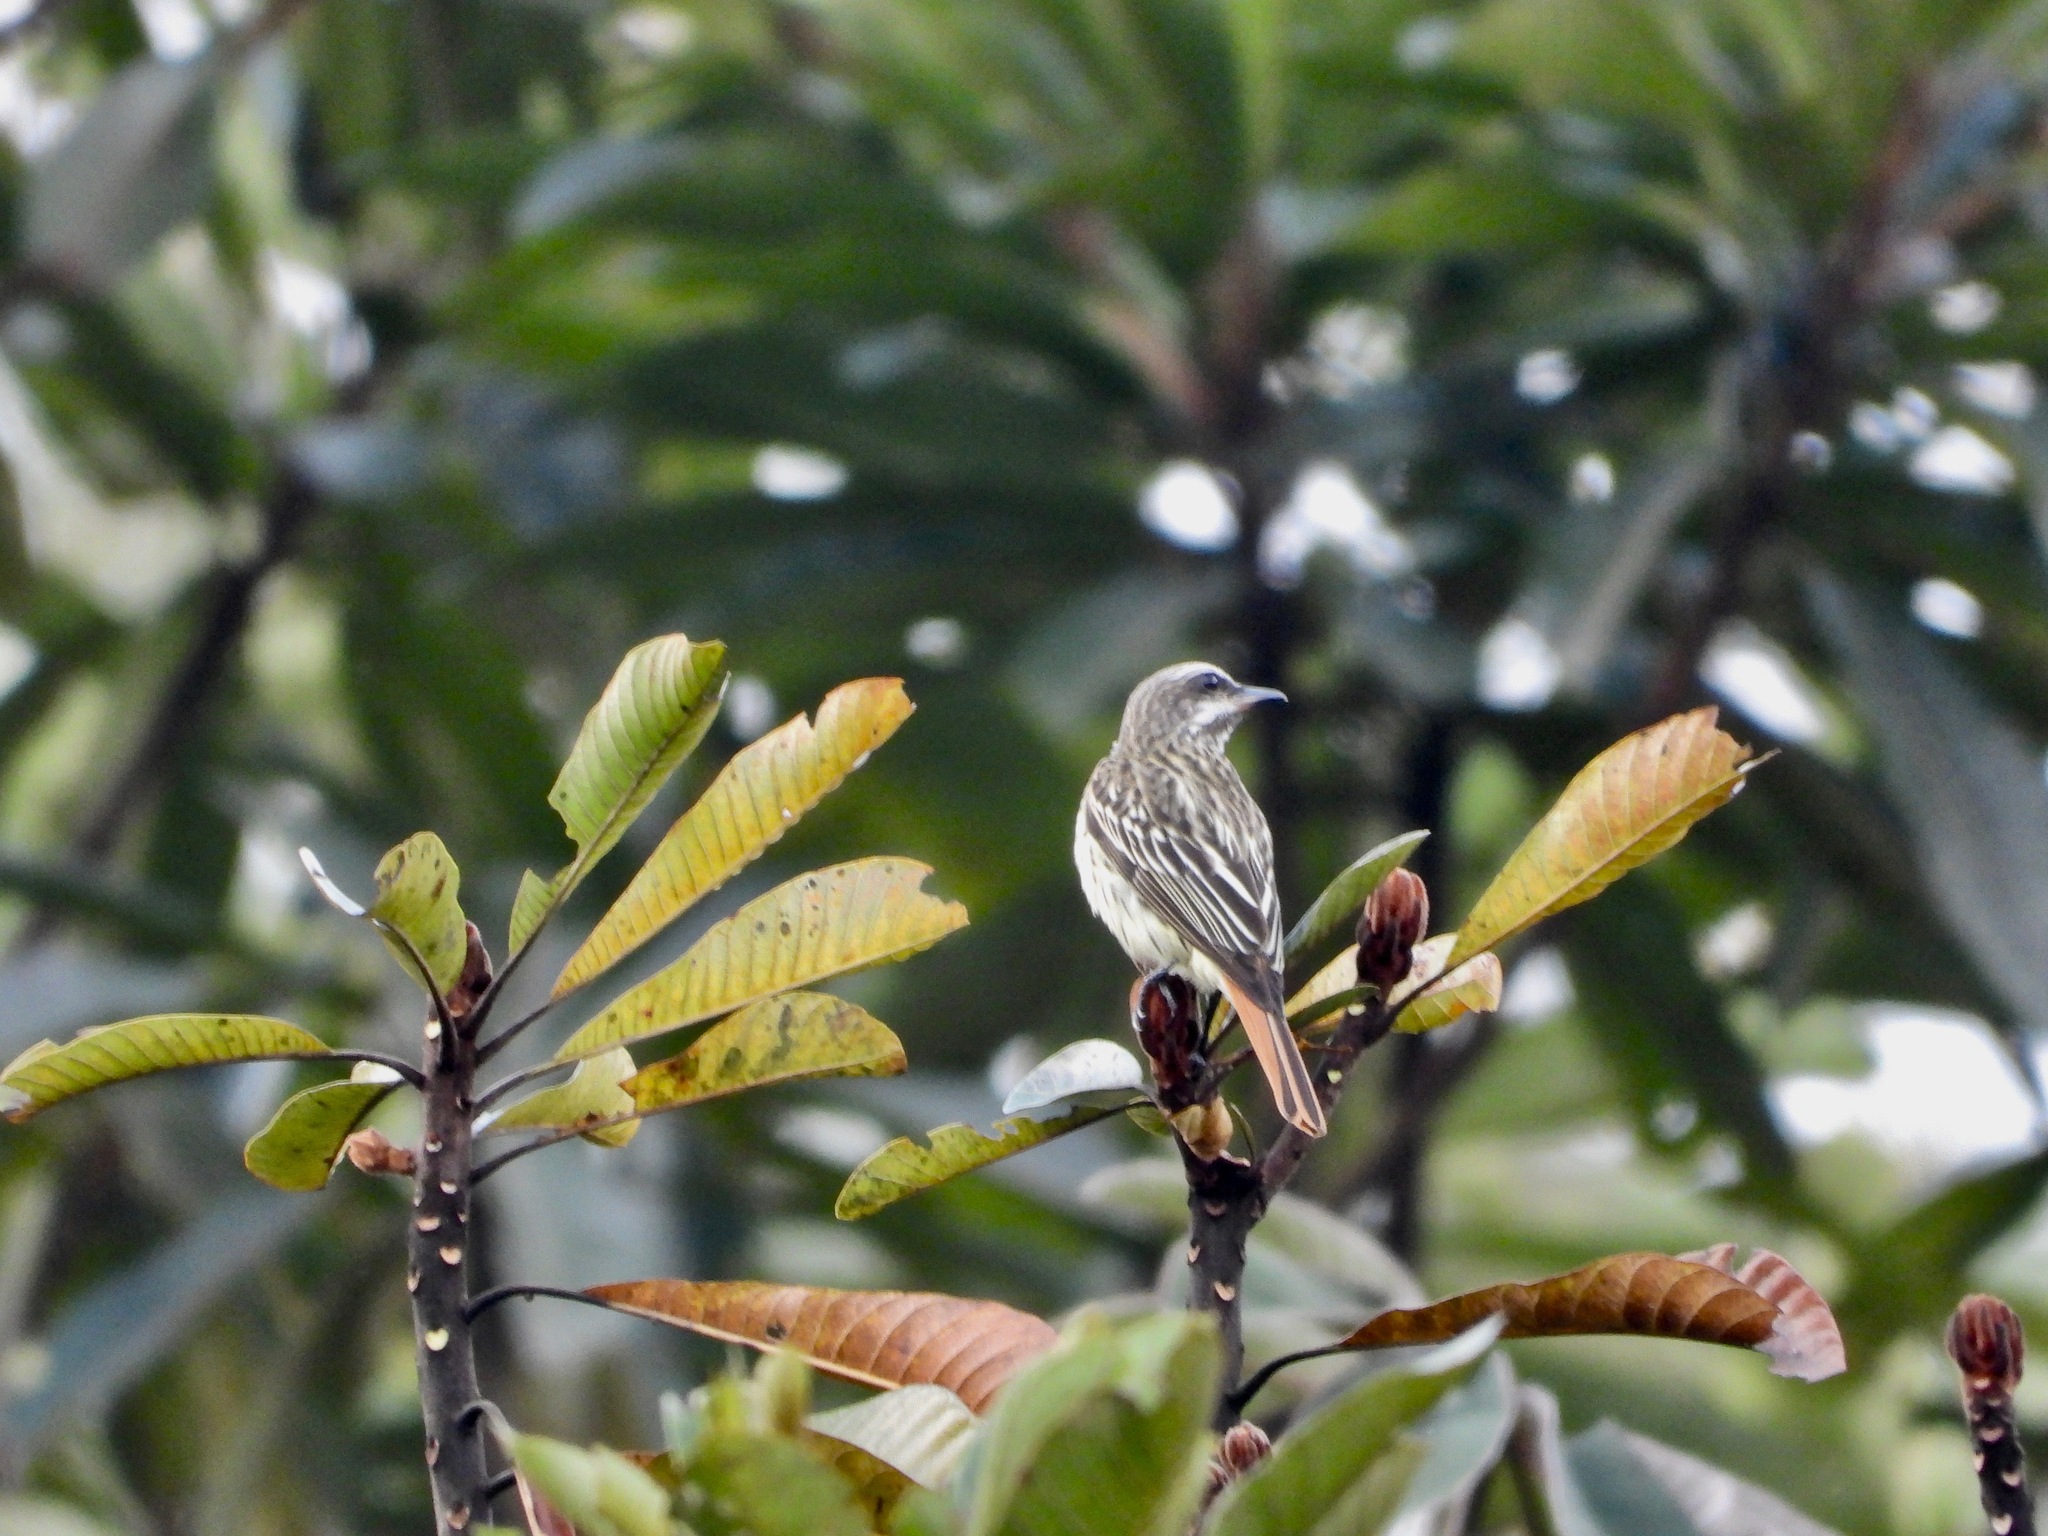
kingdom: Animalia
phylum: Chordata
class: Aves
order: Passeriformes
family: Tyrannidae
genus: Myiodynastes
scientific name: Myiodynastes luteiventris
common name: Sulphur-bellied flycatcher
